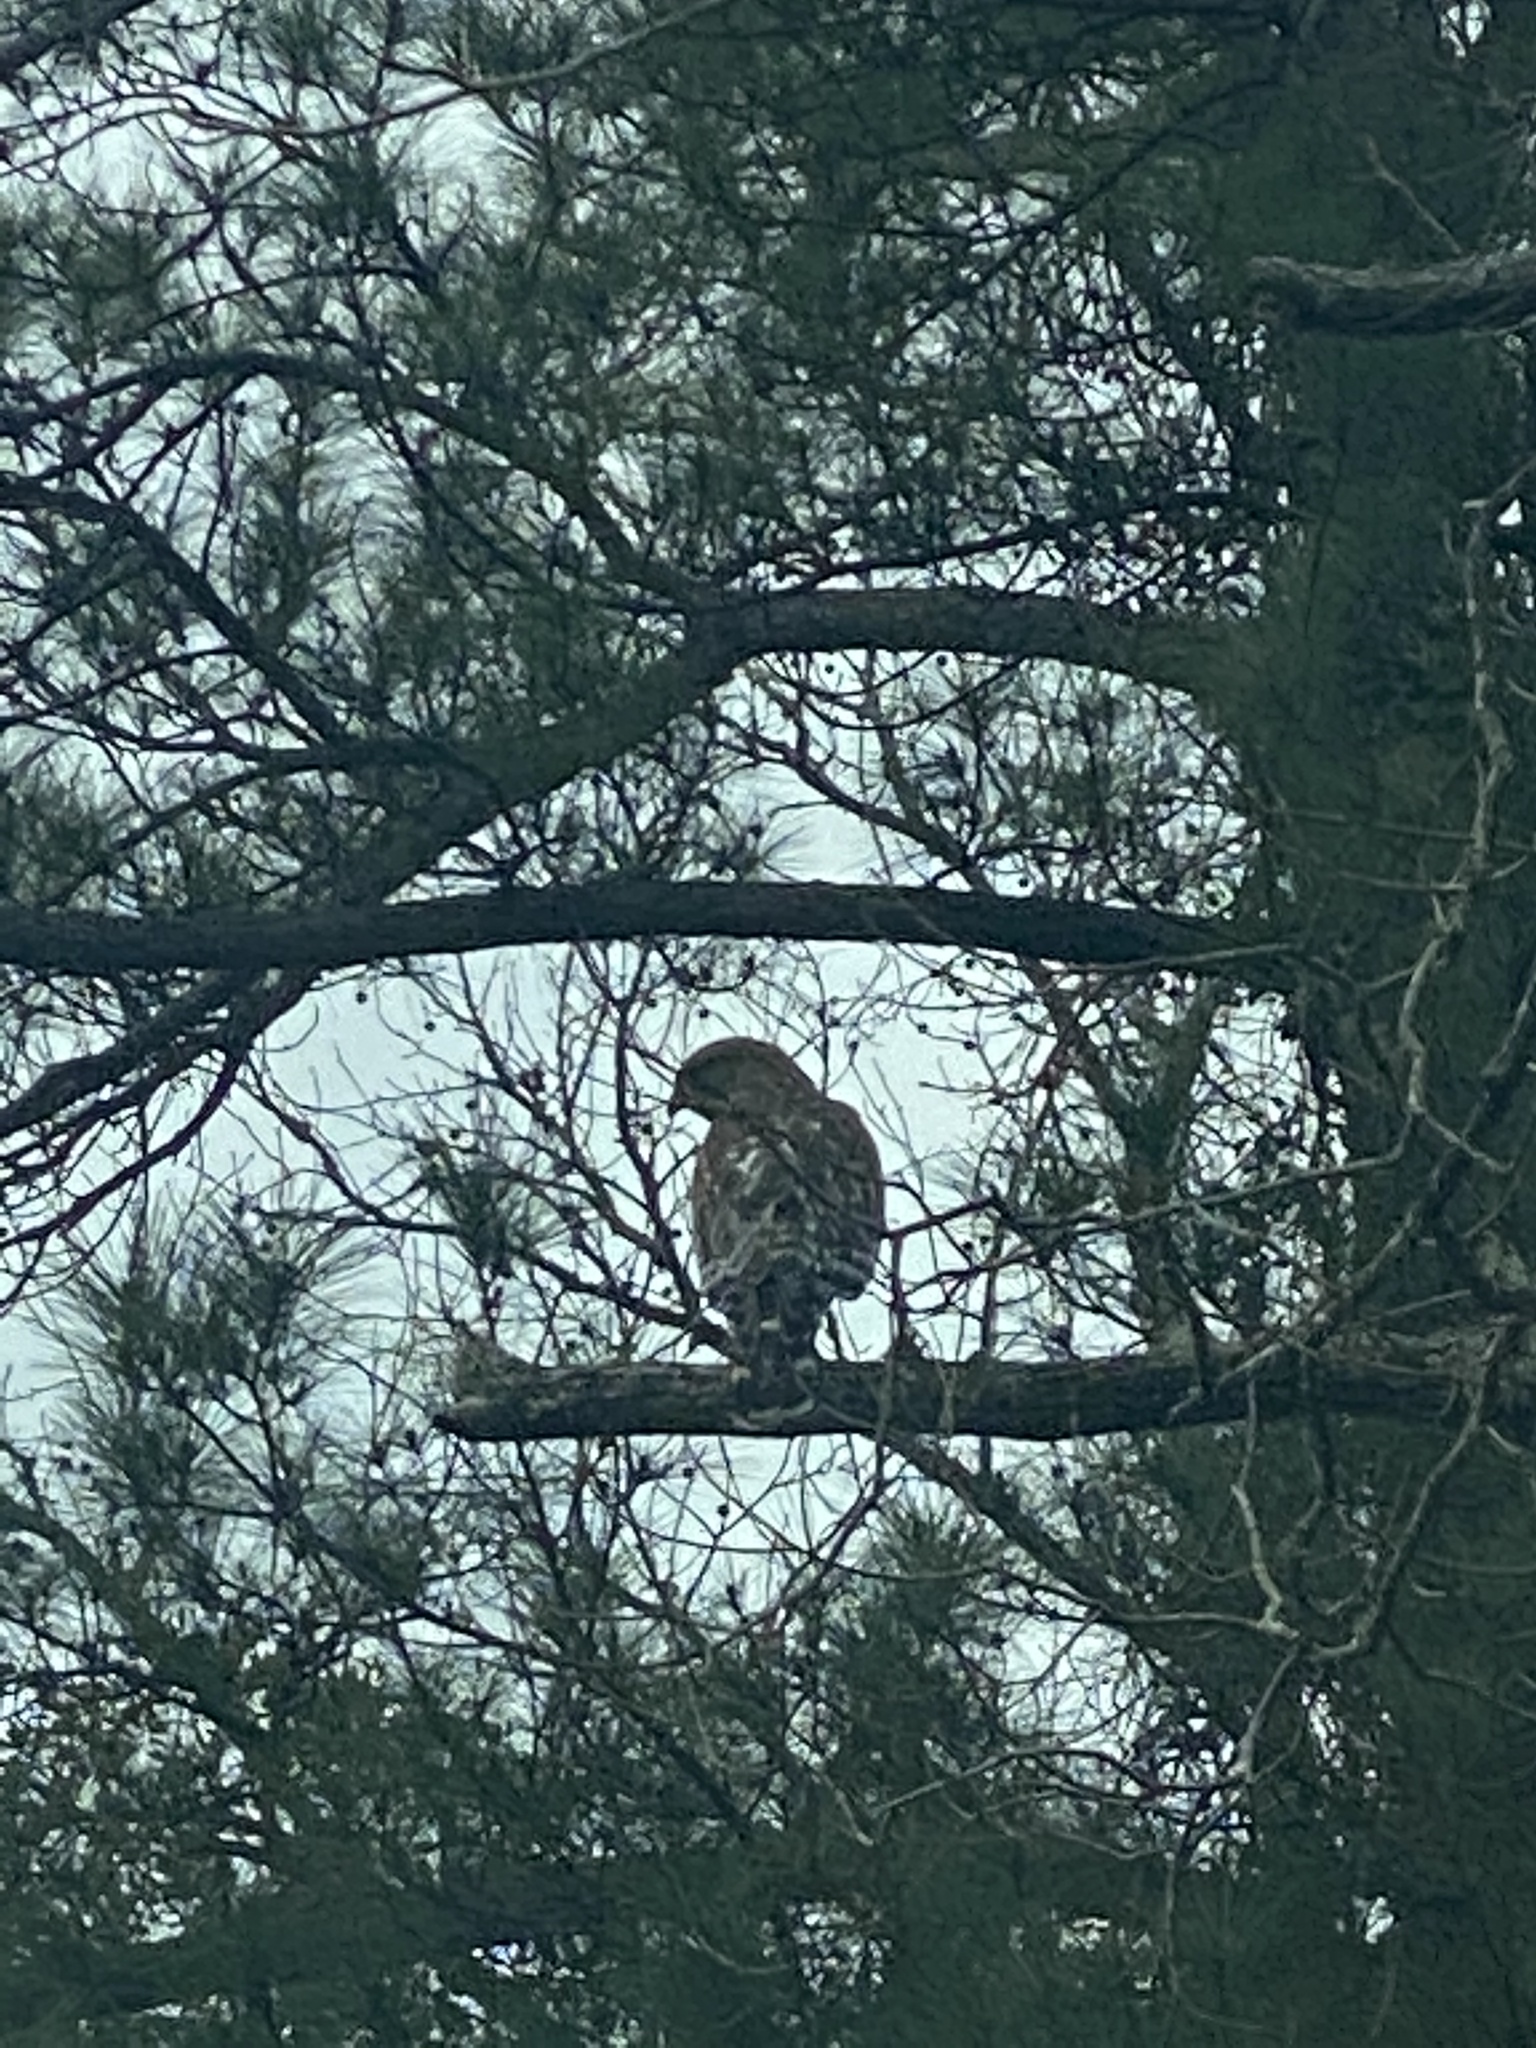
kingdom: Animalia
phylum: Chordata
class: Aves
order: Accipitriformes
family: Accipitridae
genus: Buteo
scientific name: Buteo lineatus
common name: Red-shouldered hawk
